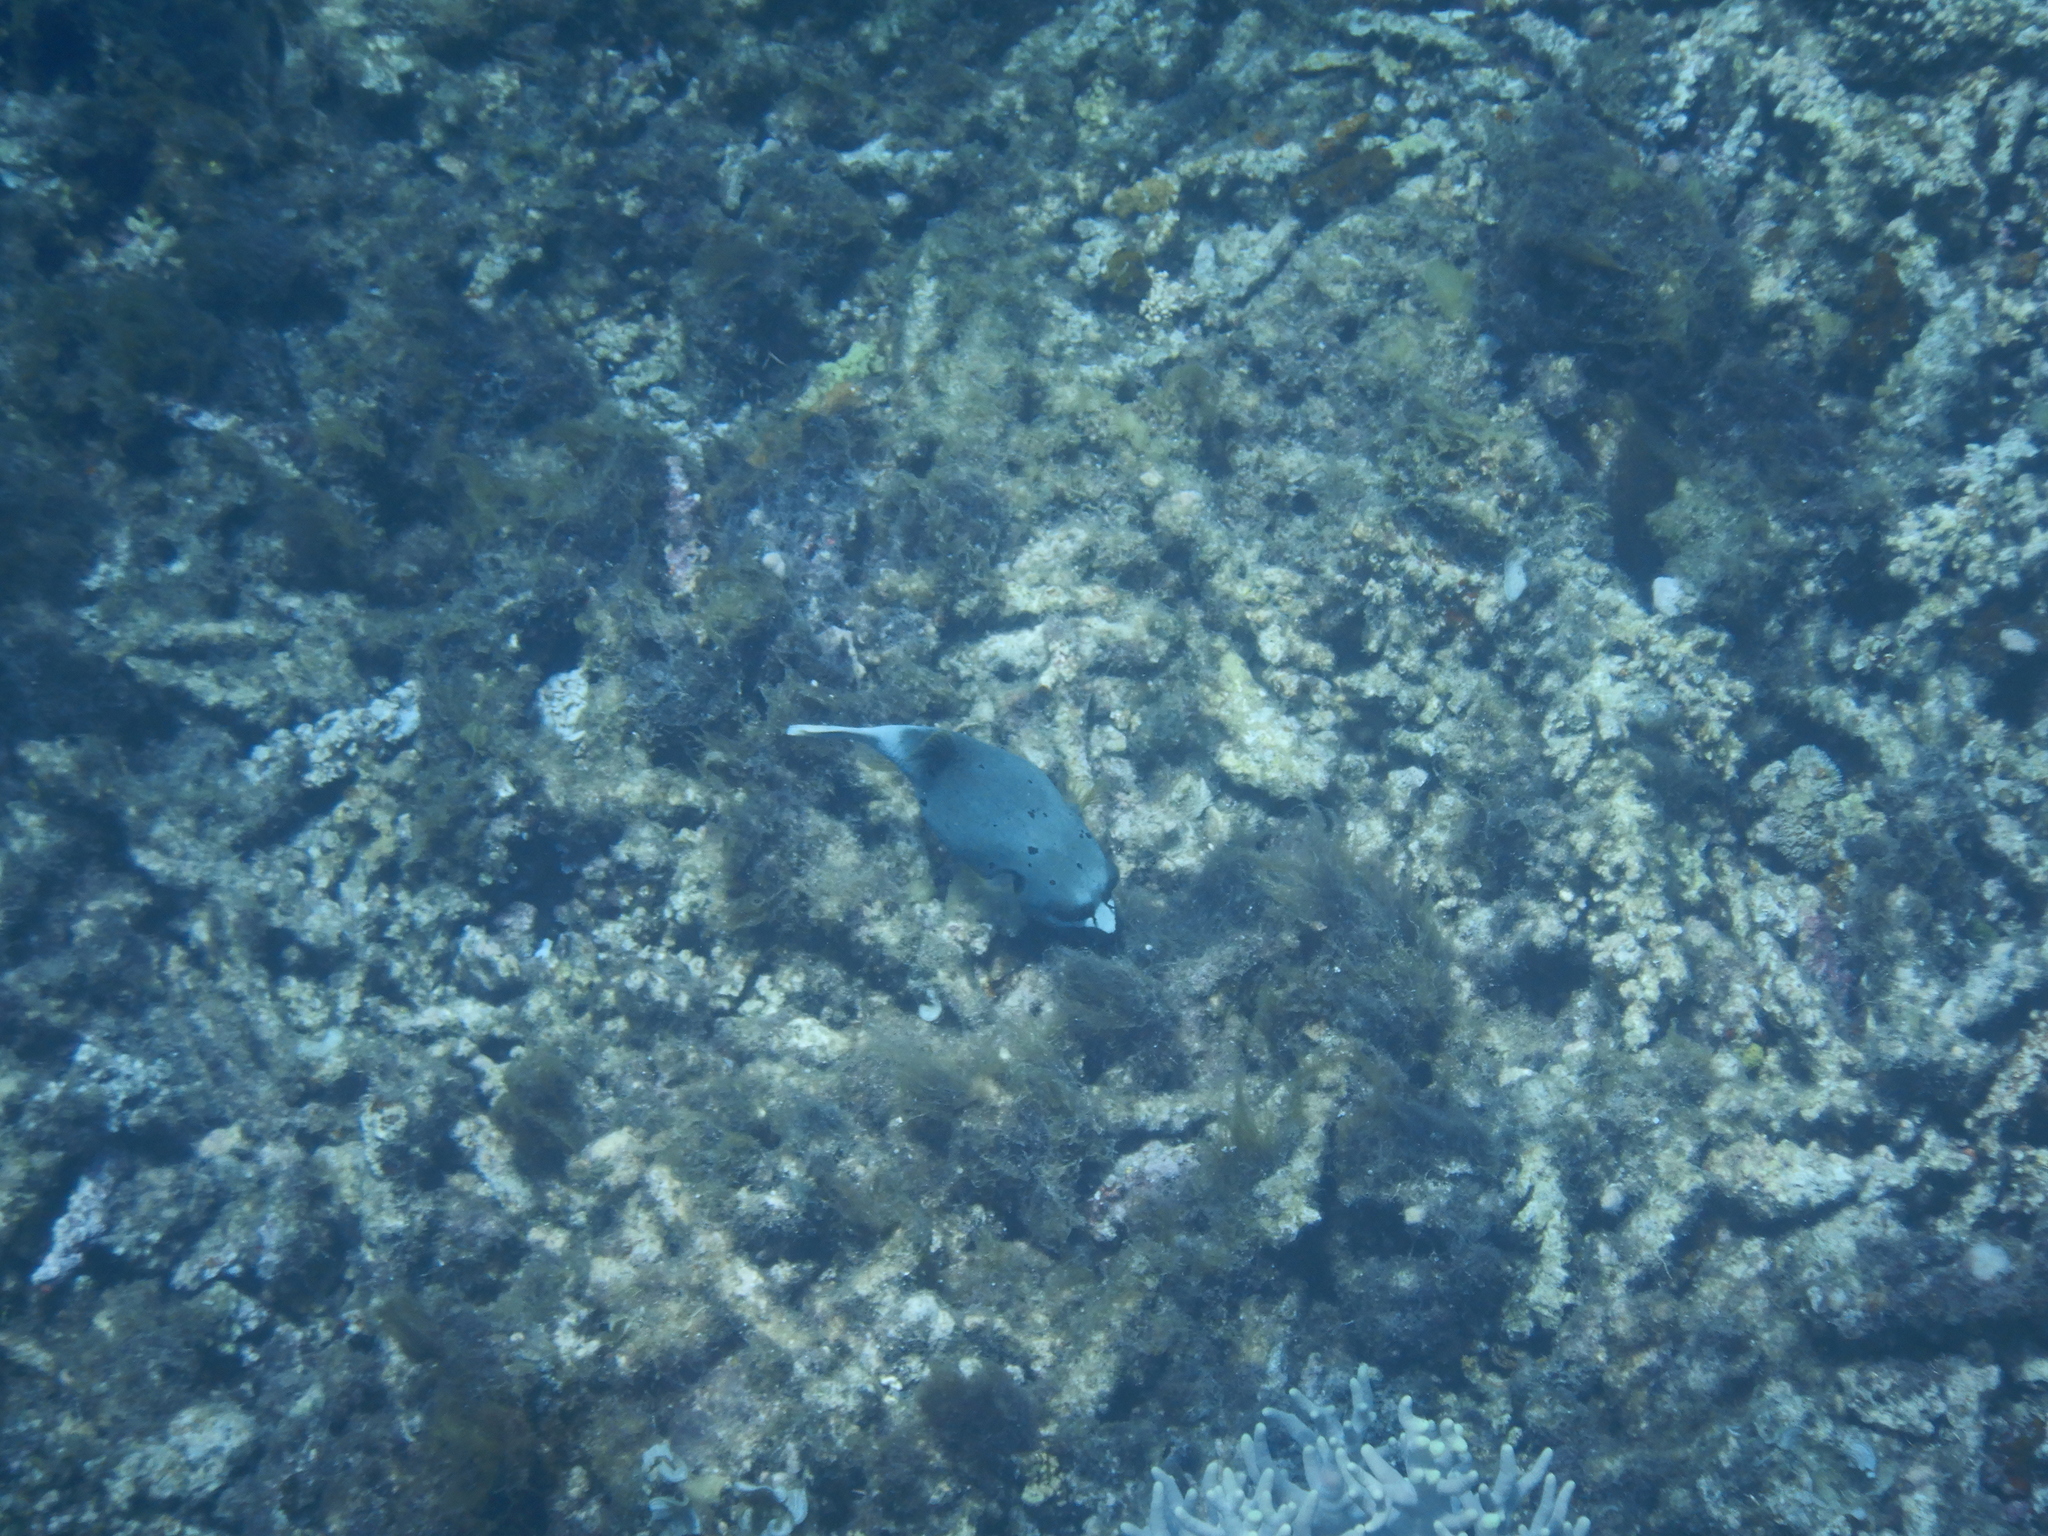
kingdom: Animalia
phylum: Chordata
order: Tetraodontiformes
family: Tetraodontidae
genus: Arothron
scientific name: Arothron nigropunctatus
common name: Black spotted blow fish
